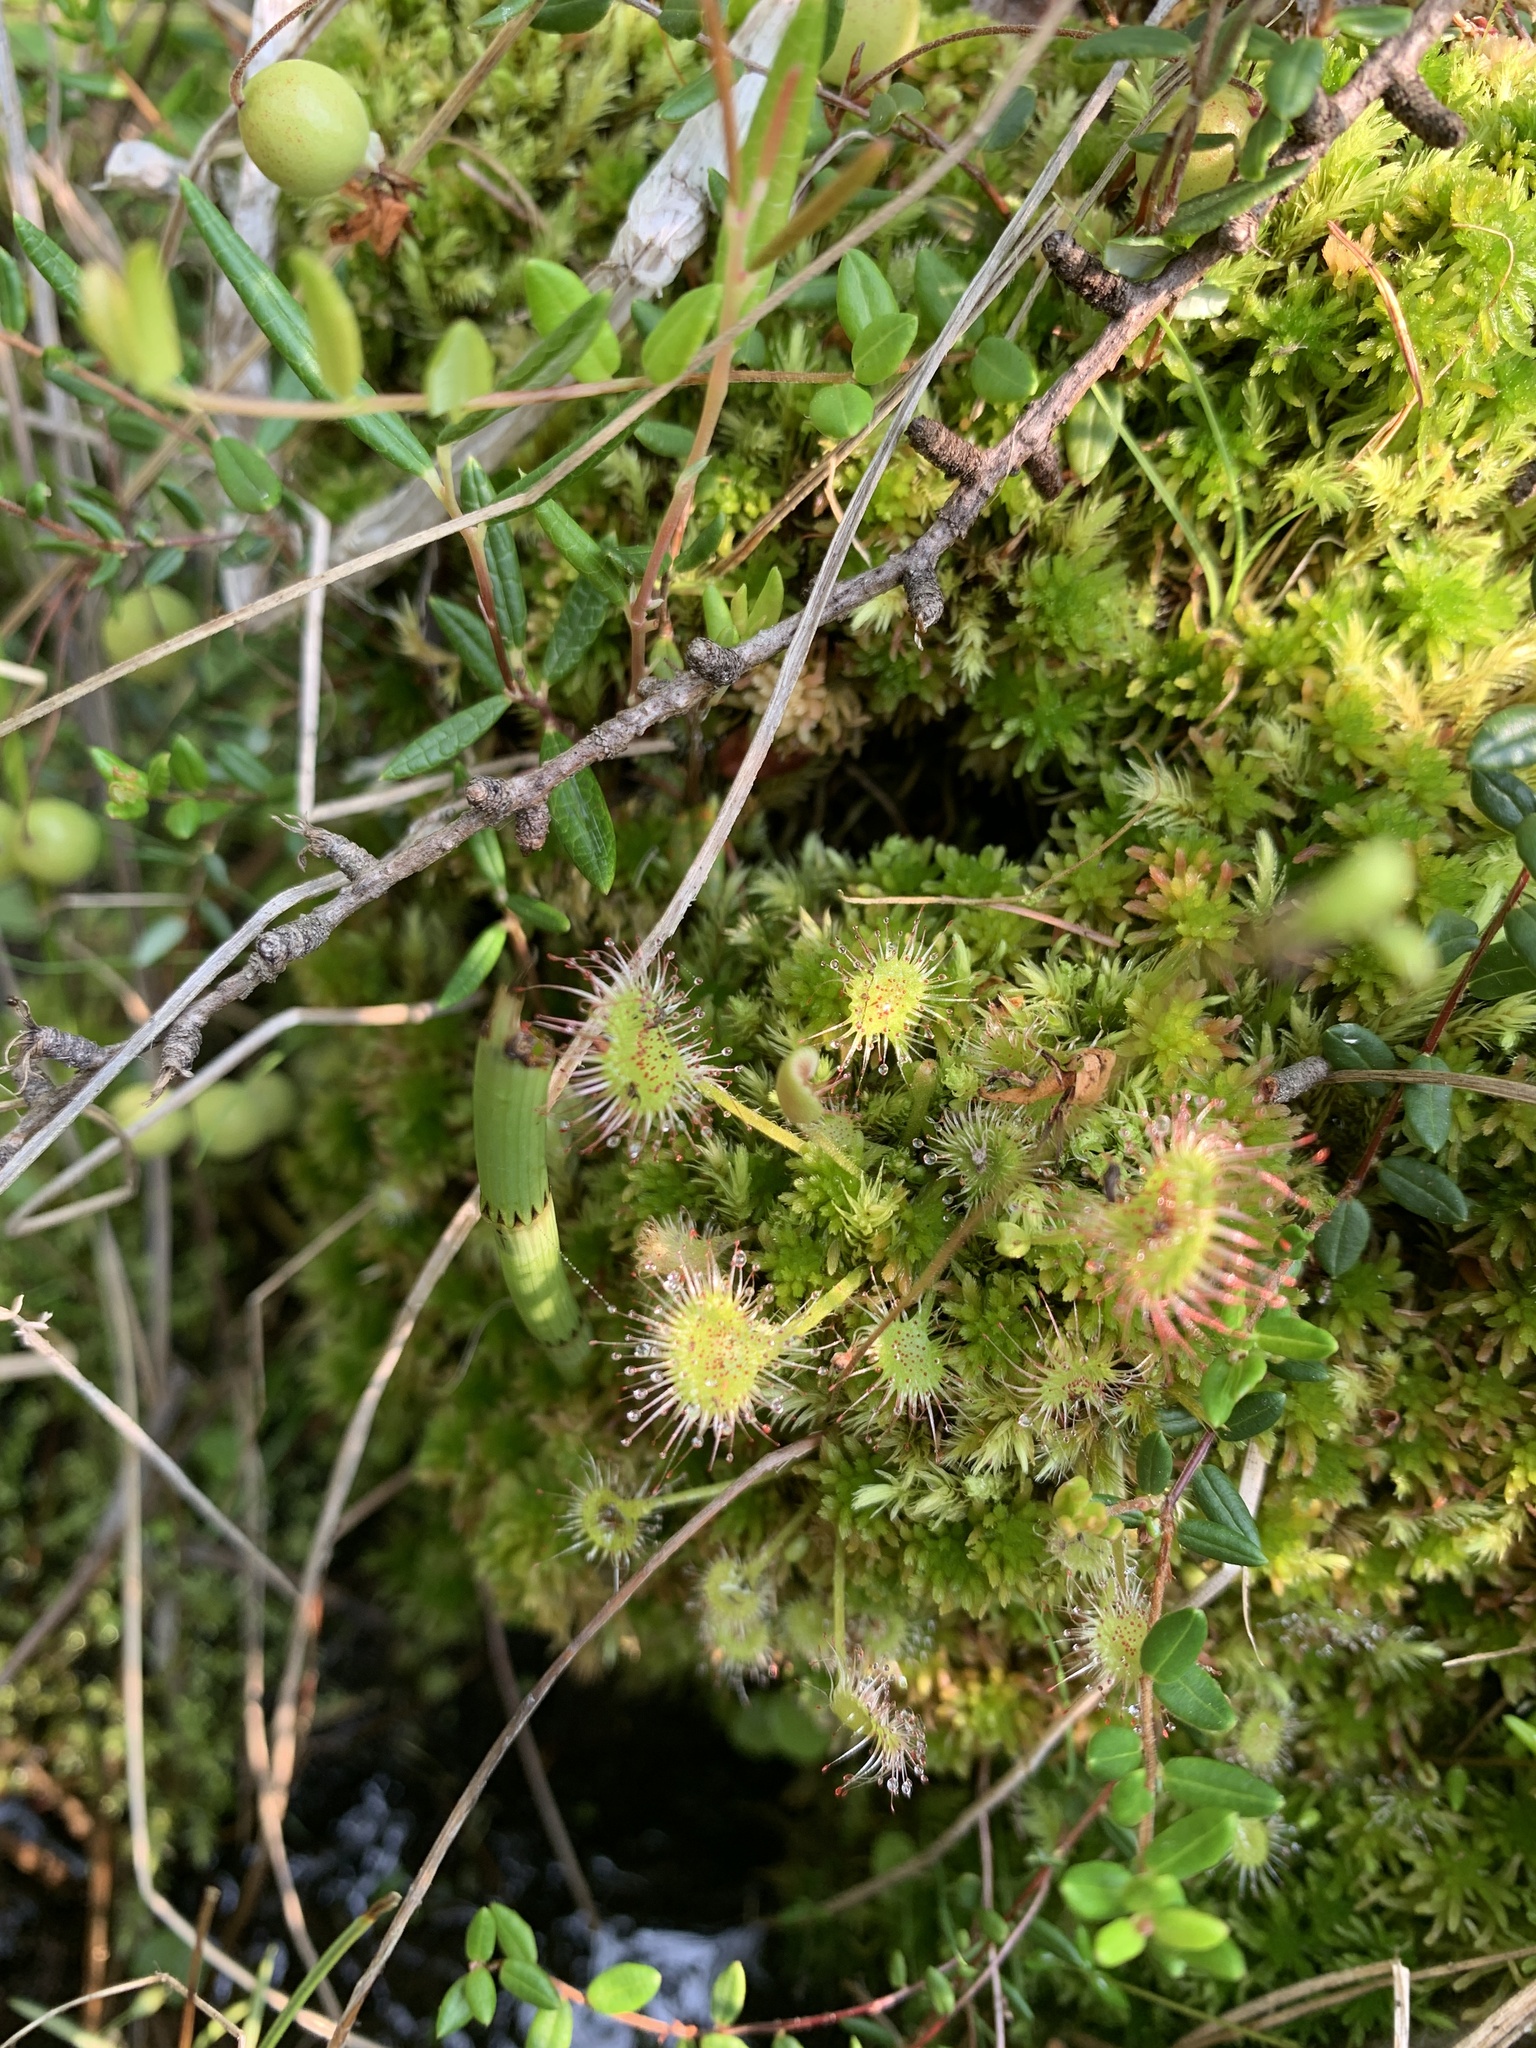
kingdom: Plantae
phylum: Tracheophyta
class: Magnoliopsida
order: Caryophyllales
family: Droseraceae
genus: Drosera
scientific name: Drosera rotundifolia
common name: Round-leaved sundew
